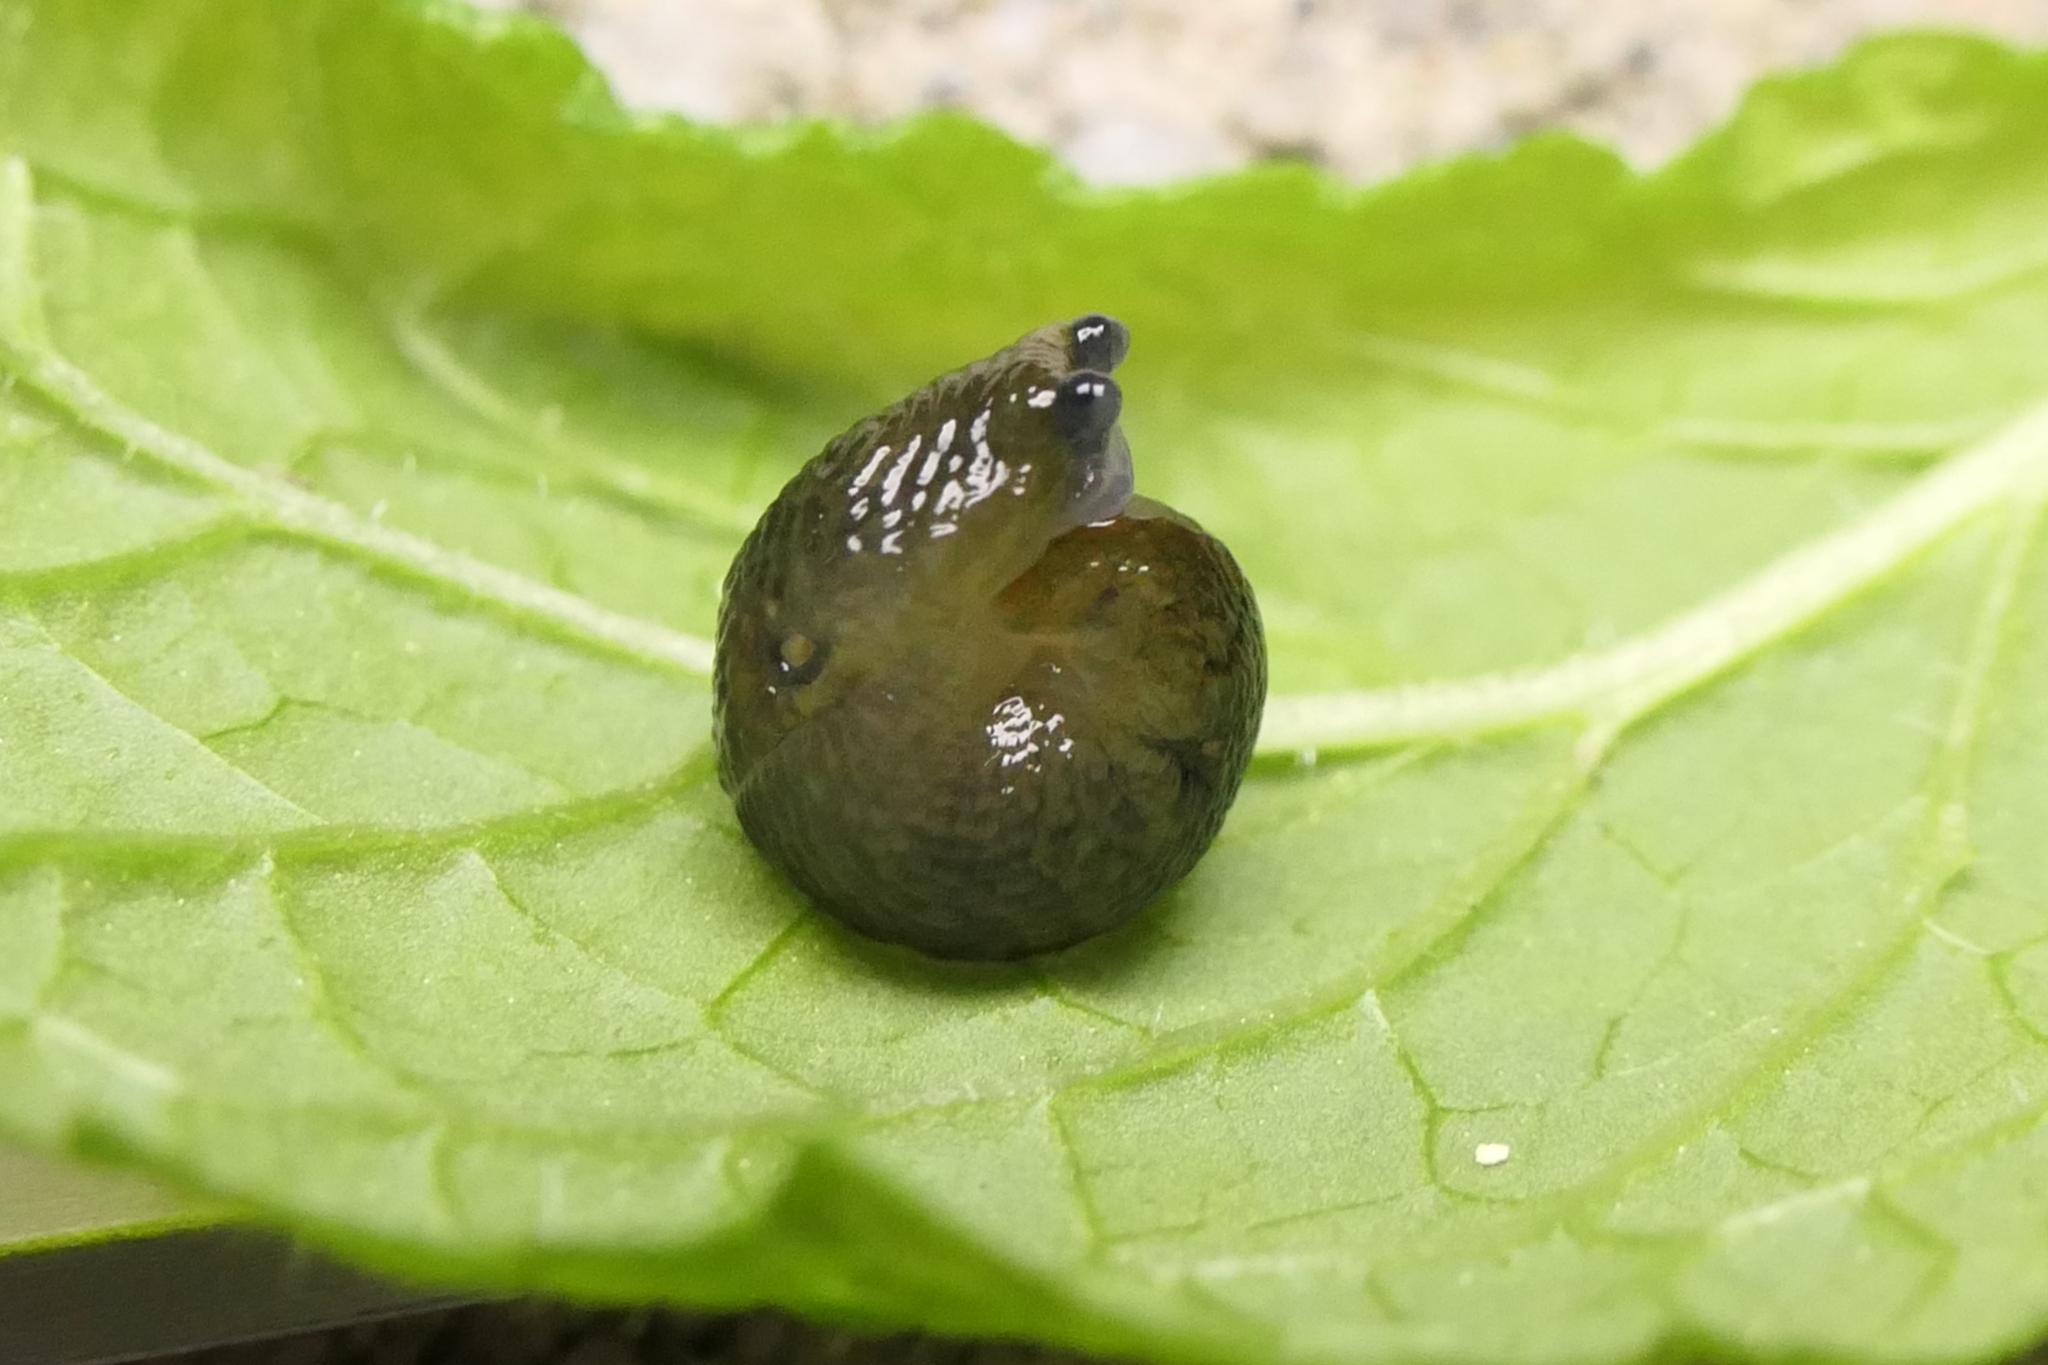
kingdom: Animalia
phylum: Mollusca
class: Gastropoda
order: Stylommatophora
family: Limacidae
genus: Limacus
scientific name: Limacus flavus
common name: Yellow gardenslug
